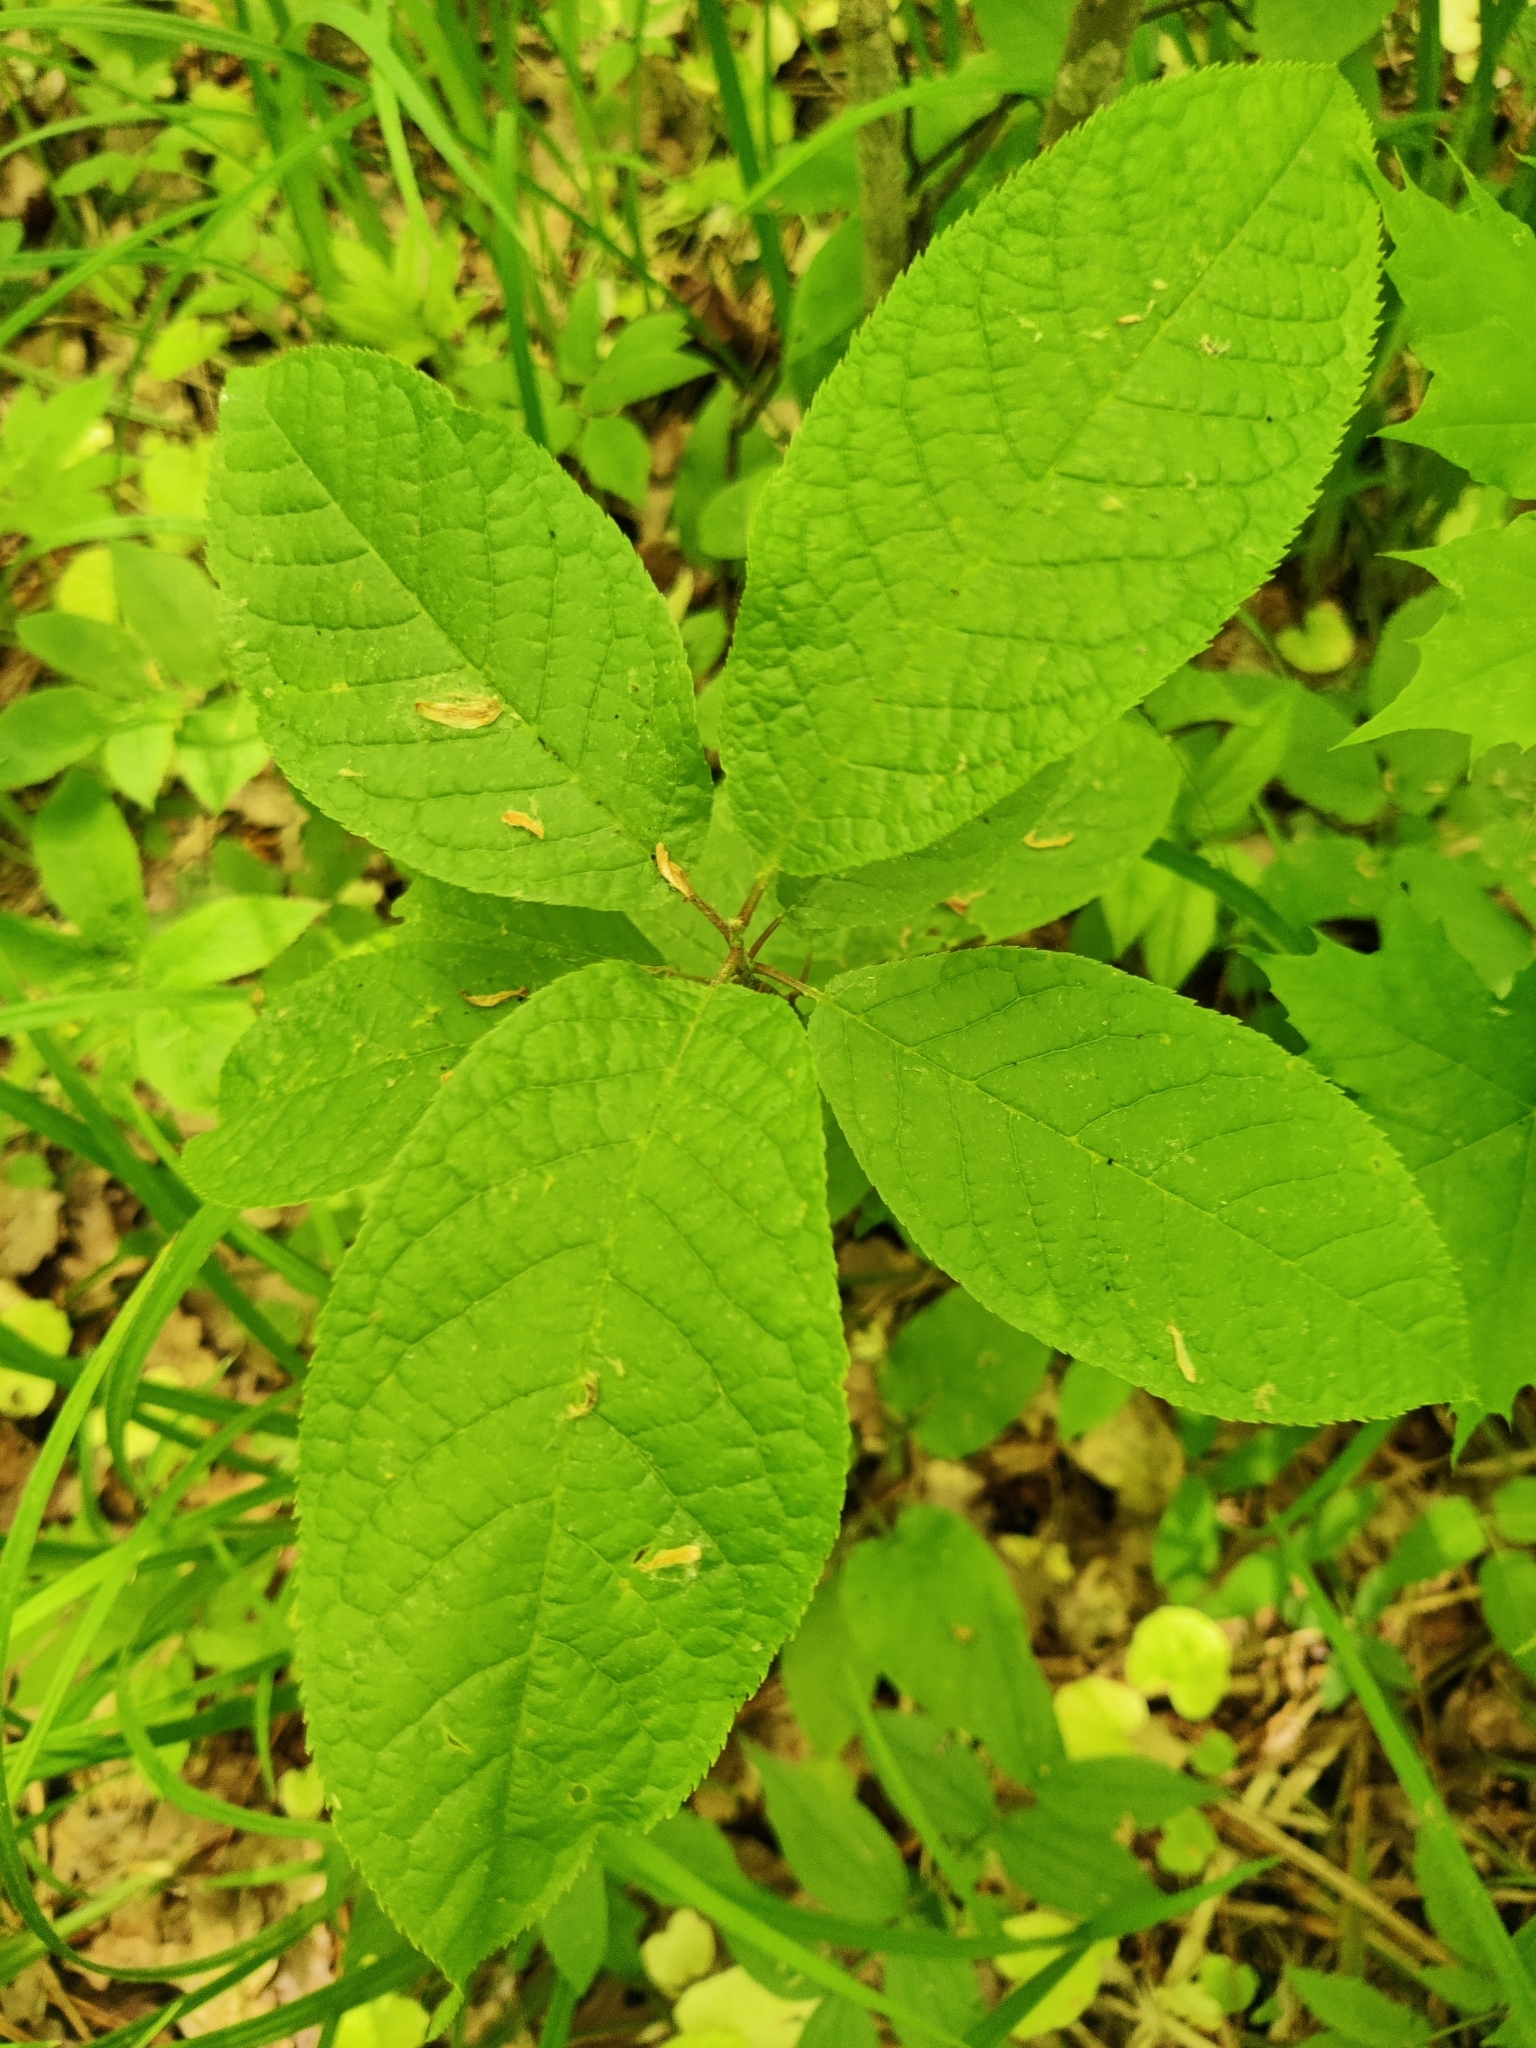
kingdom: Plantae
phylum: Tracheophyta
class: Magnoliopsida
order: Rosales
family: Rosaceae
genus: Prunus
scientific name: Prunus padus
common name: Bird cherry
